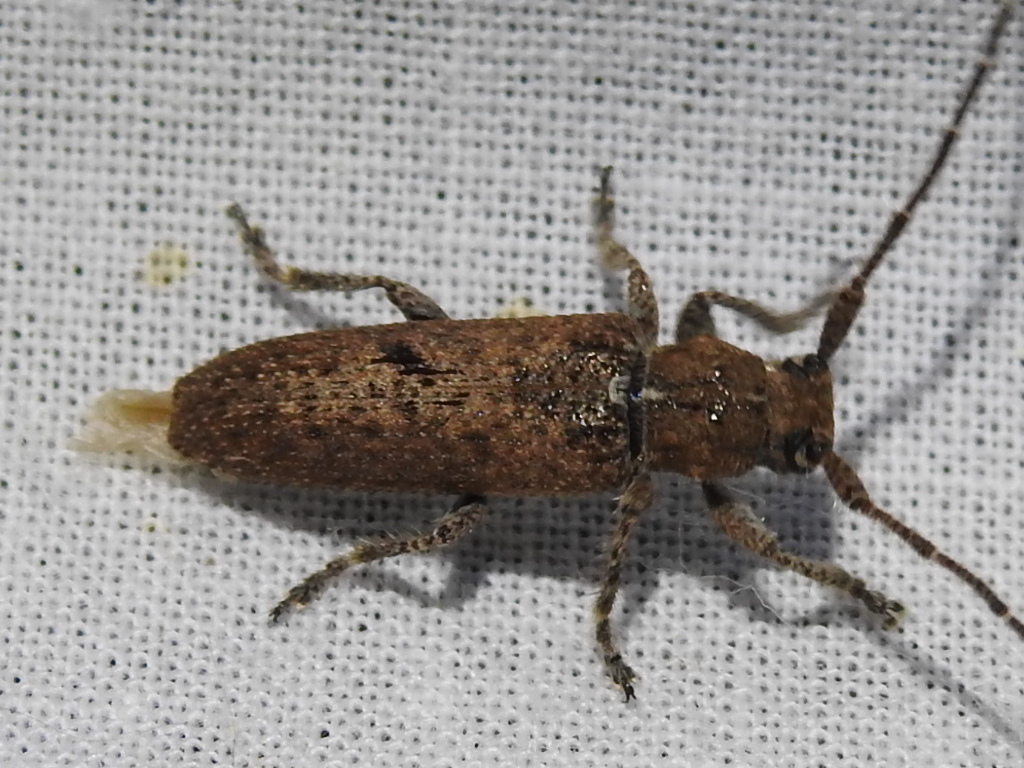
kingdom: Animalia
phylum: Arthropoda
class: Insecta
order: Coleoptera
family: Cerambycidae
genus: Ataxia
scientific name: Ataxia crypta
